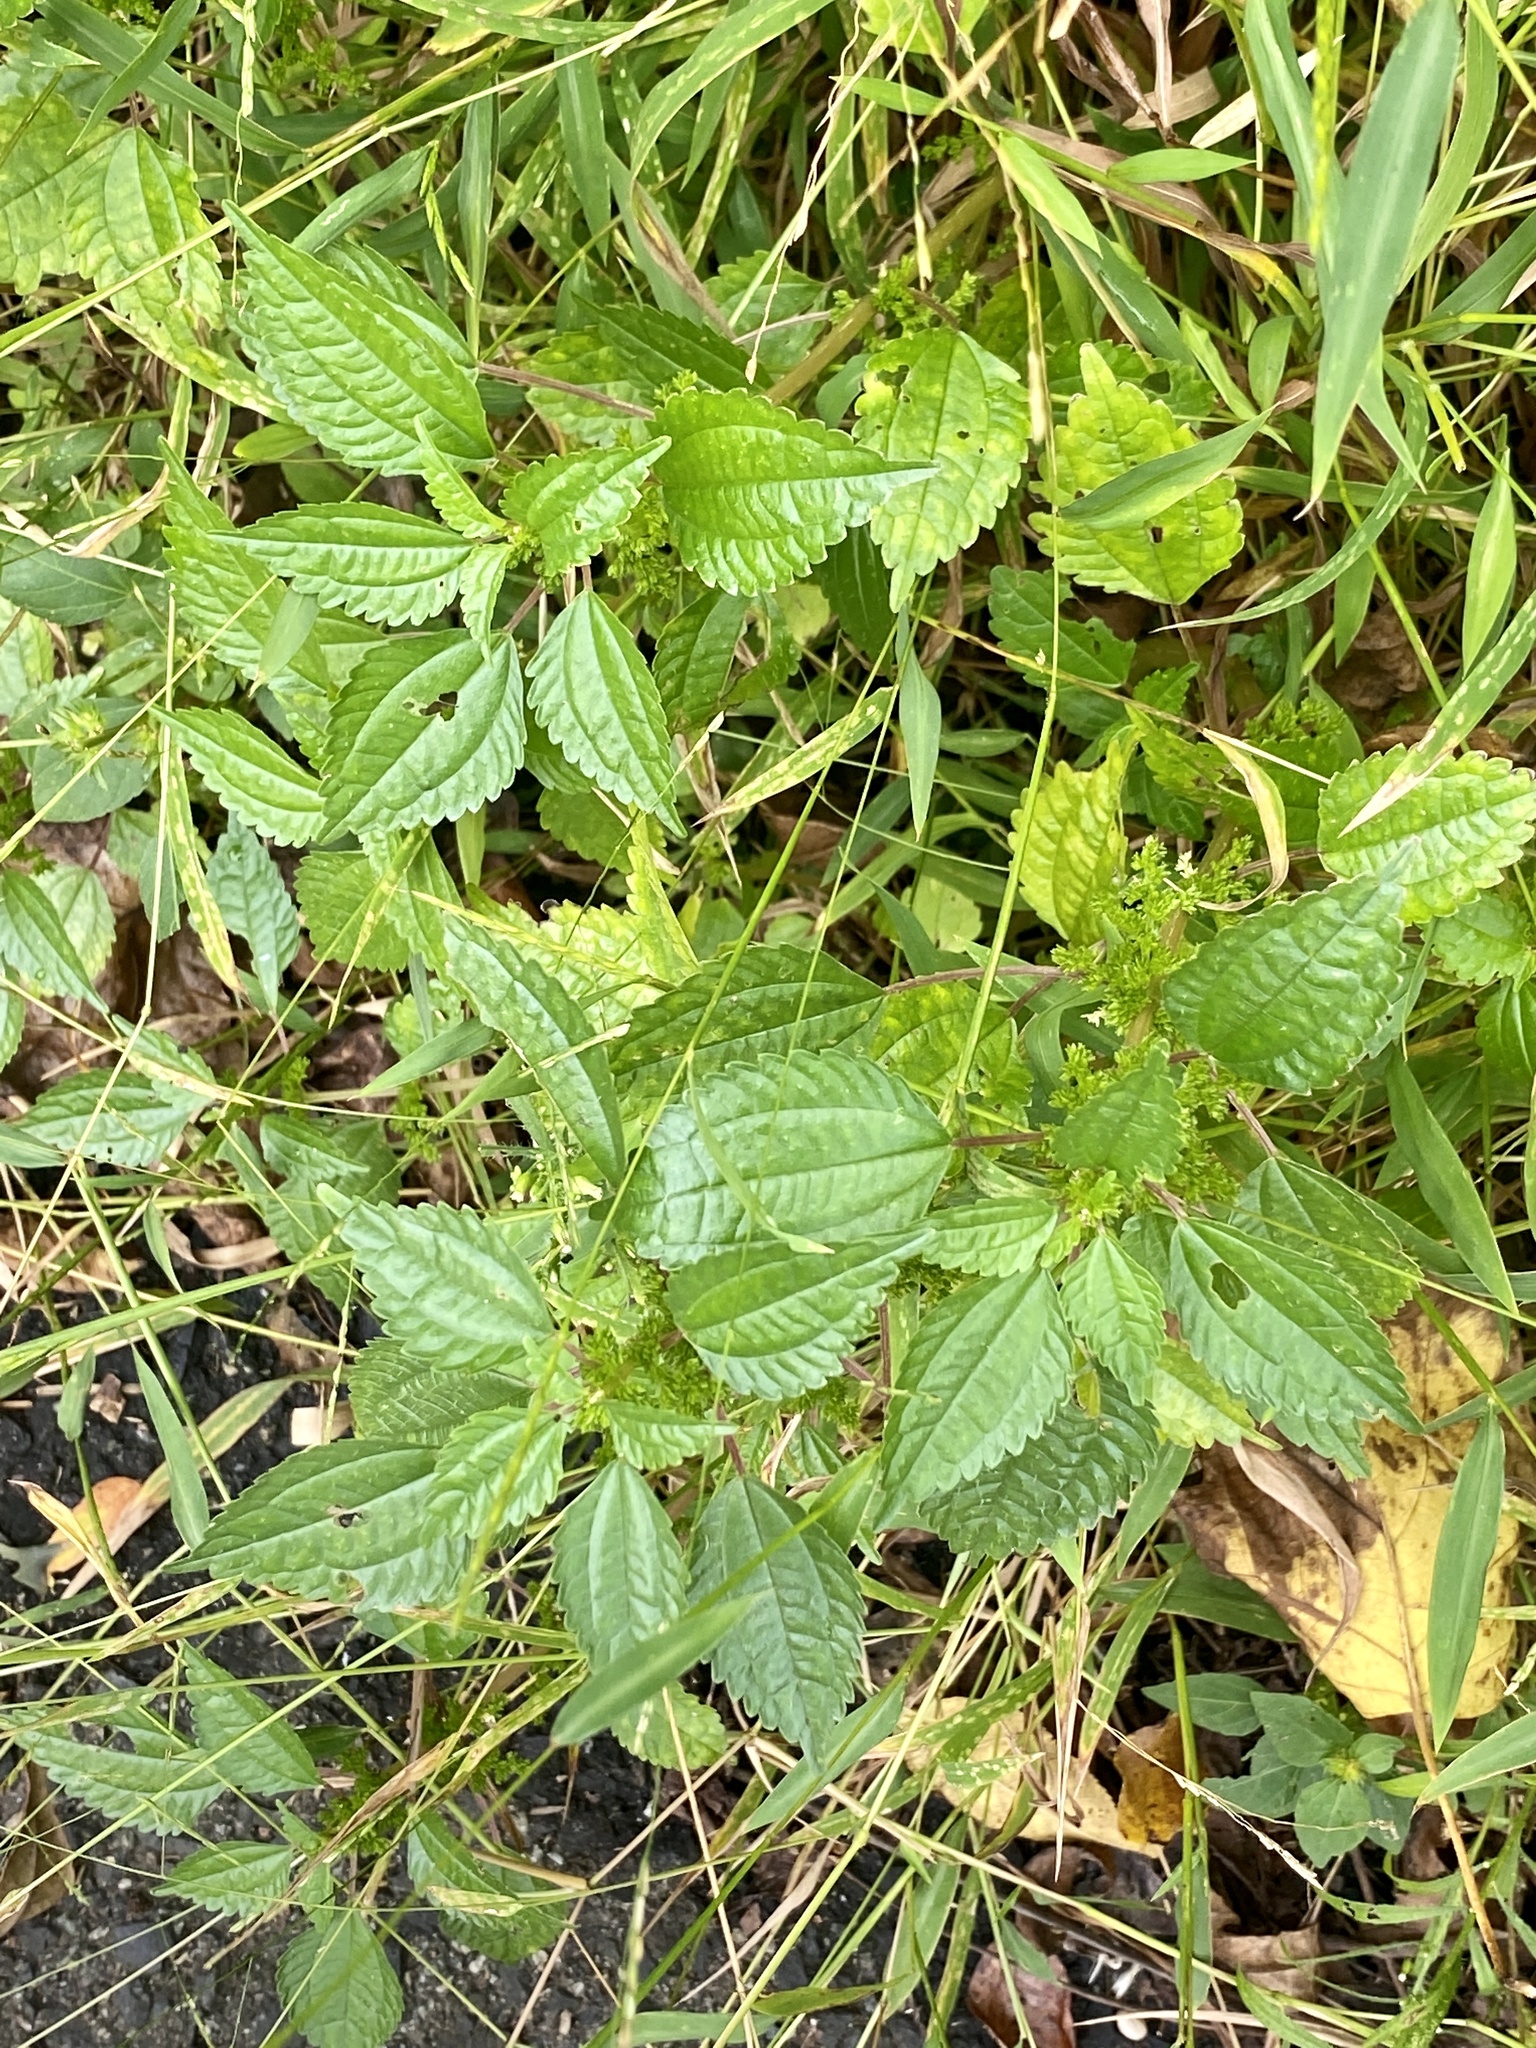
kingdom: Plantae
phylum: Tracheophyta
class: Magnoliopsida
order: Rosales
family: Urticaceae
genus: Pilea
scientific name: Pilea pumila
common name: Clearweed
